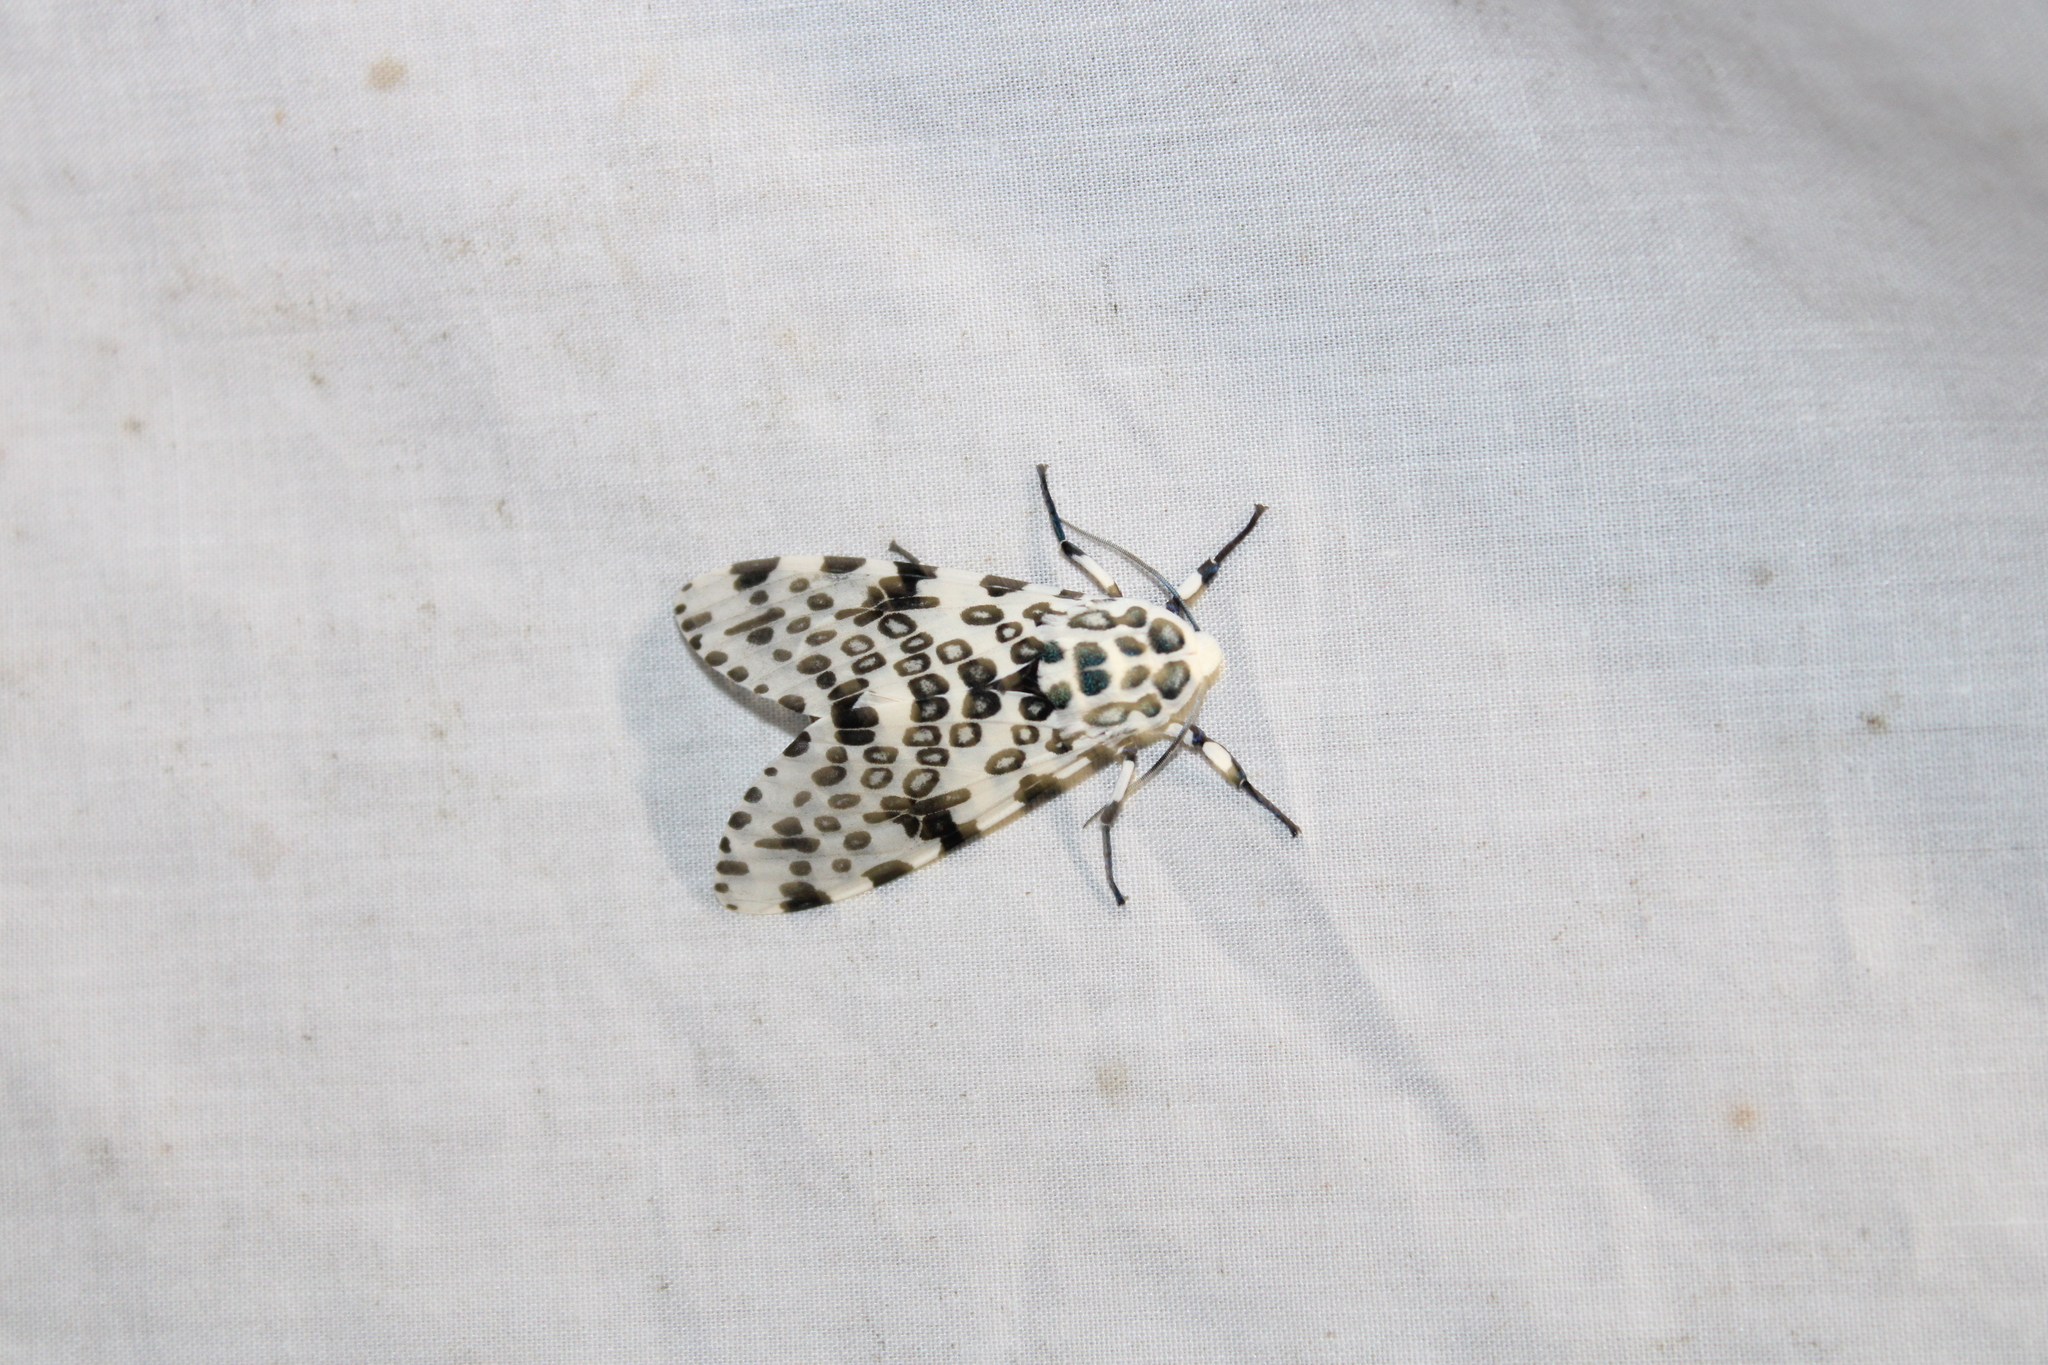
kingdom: Animalia
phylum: Arthropoda
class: Insecta
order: Lepidoptera
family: Erebidae
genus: Hypercompe
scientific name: Hypercompe scribonia
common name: Giant leopard moth
